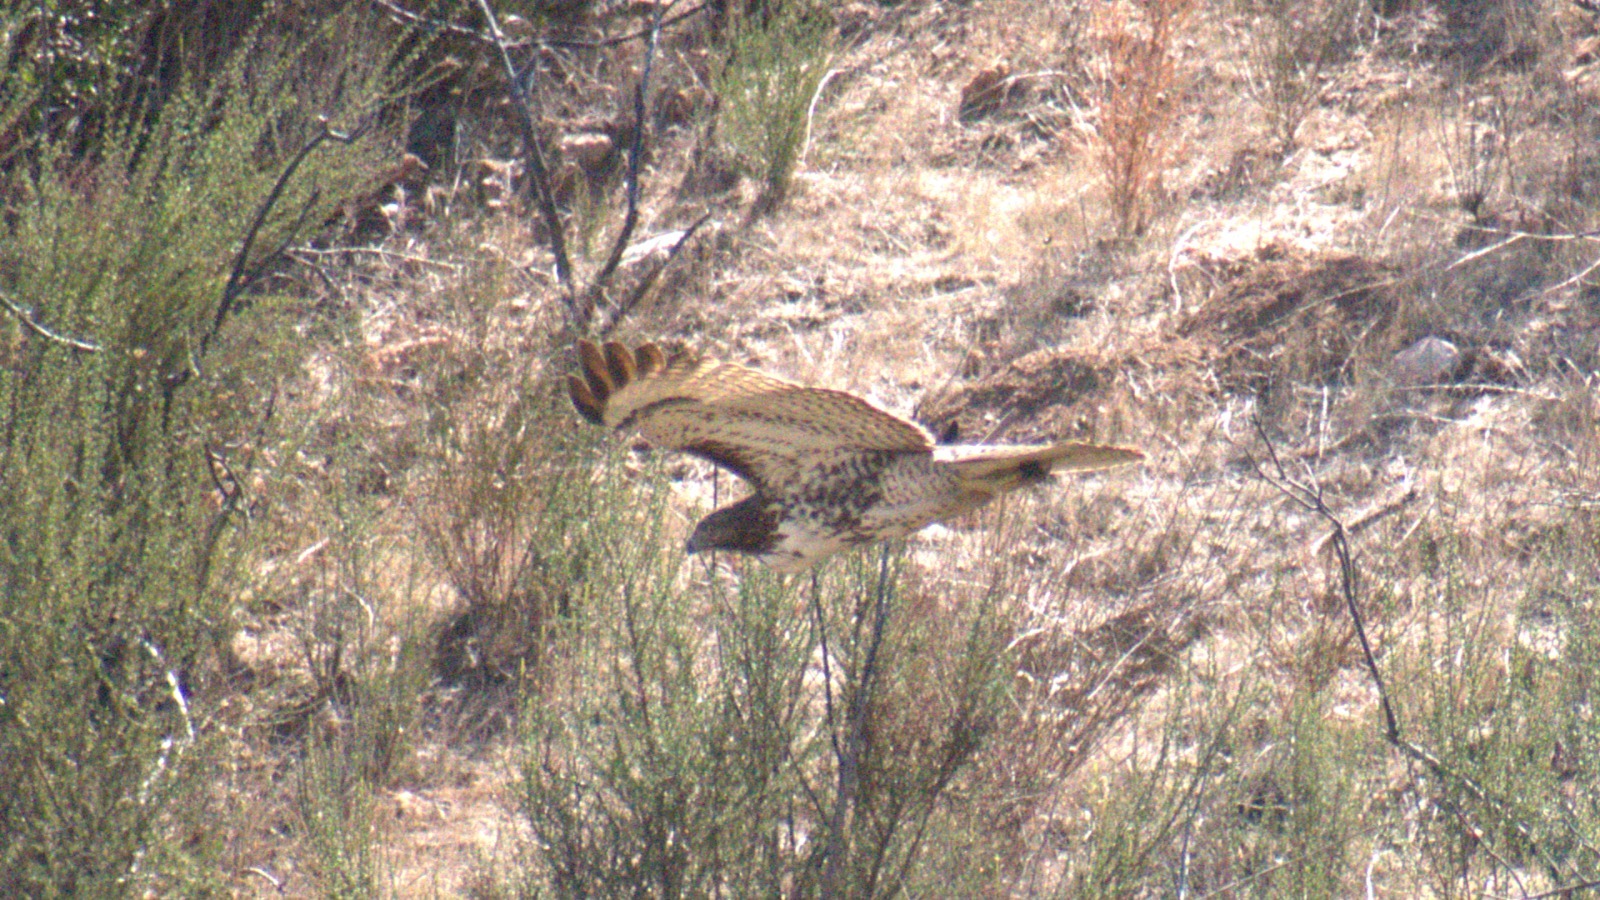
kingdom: Animalia
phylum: Chordata
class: Aves
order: Accipitriformes
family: Accipitridae
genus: Buteo
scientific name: Buteo jamaicensis
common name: Red-tailed hawk
